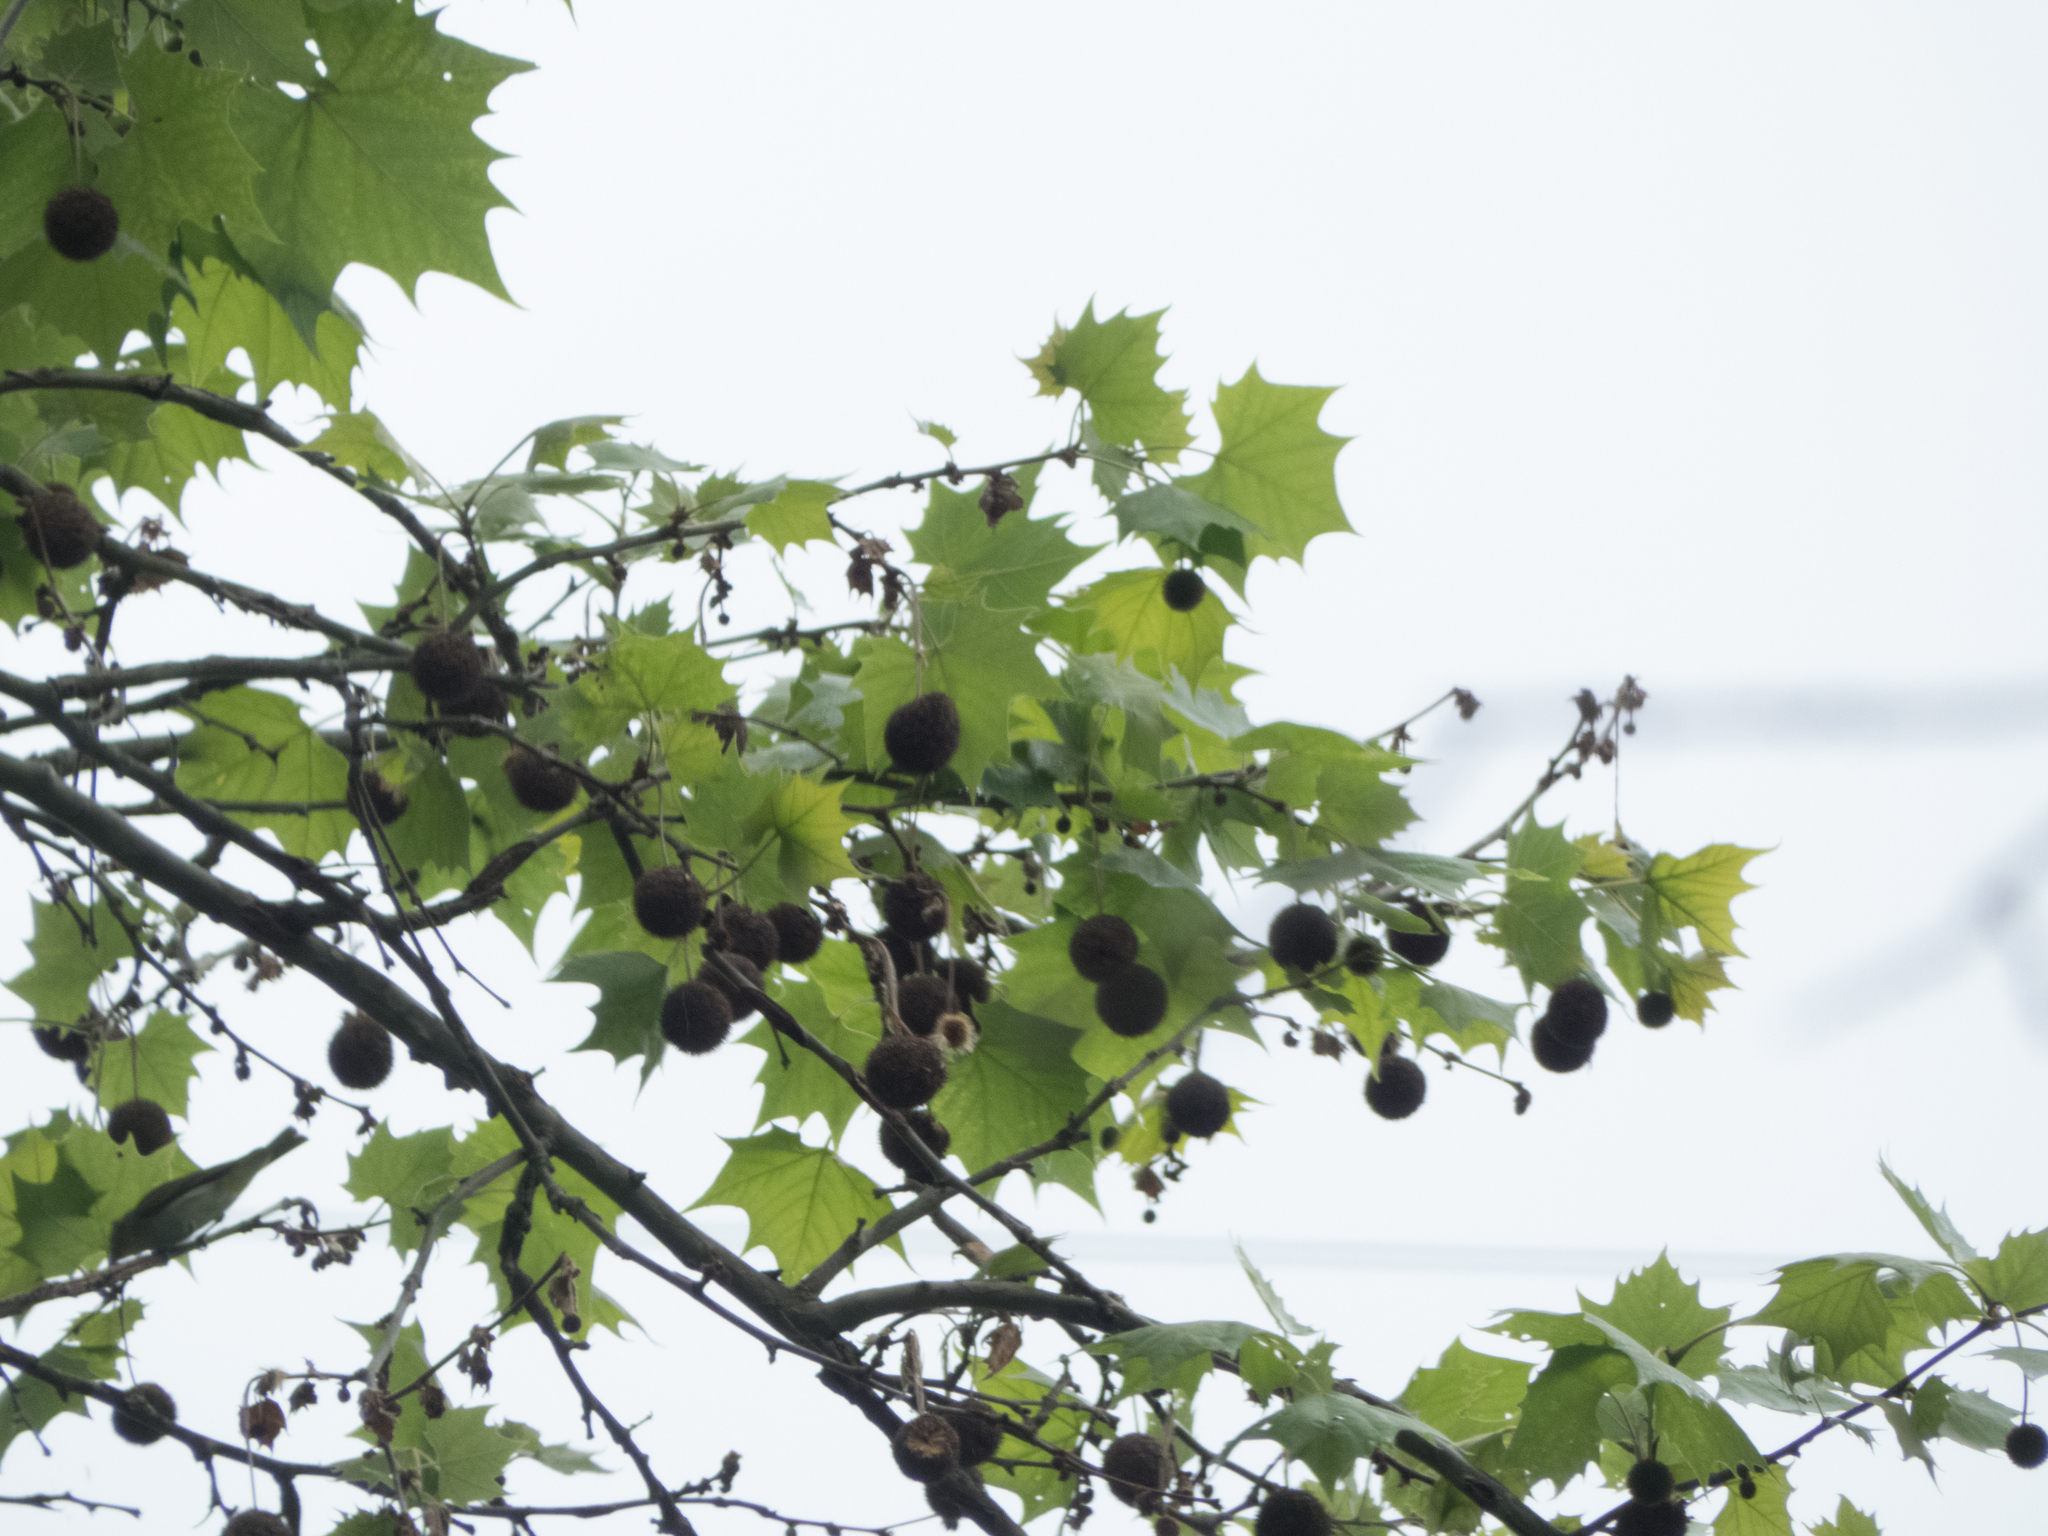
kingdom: Plantae
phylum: Tracheophyta
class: Magnoliopsida
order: Proteales
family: Platanaceae
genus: Platanus
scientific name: Platanus occidentalis
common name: American sycamore
